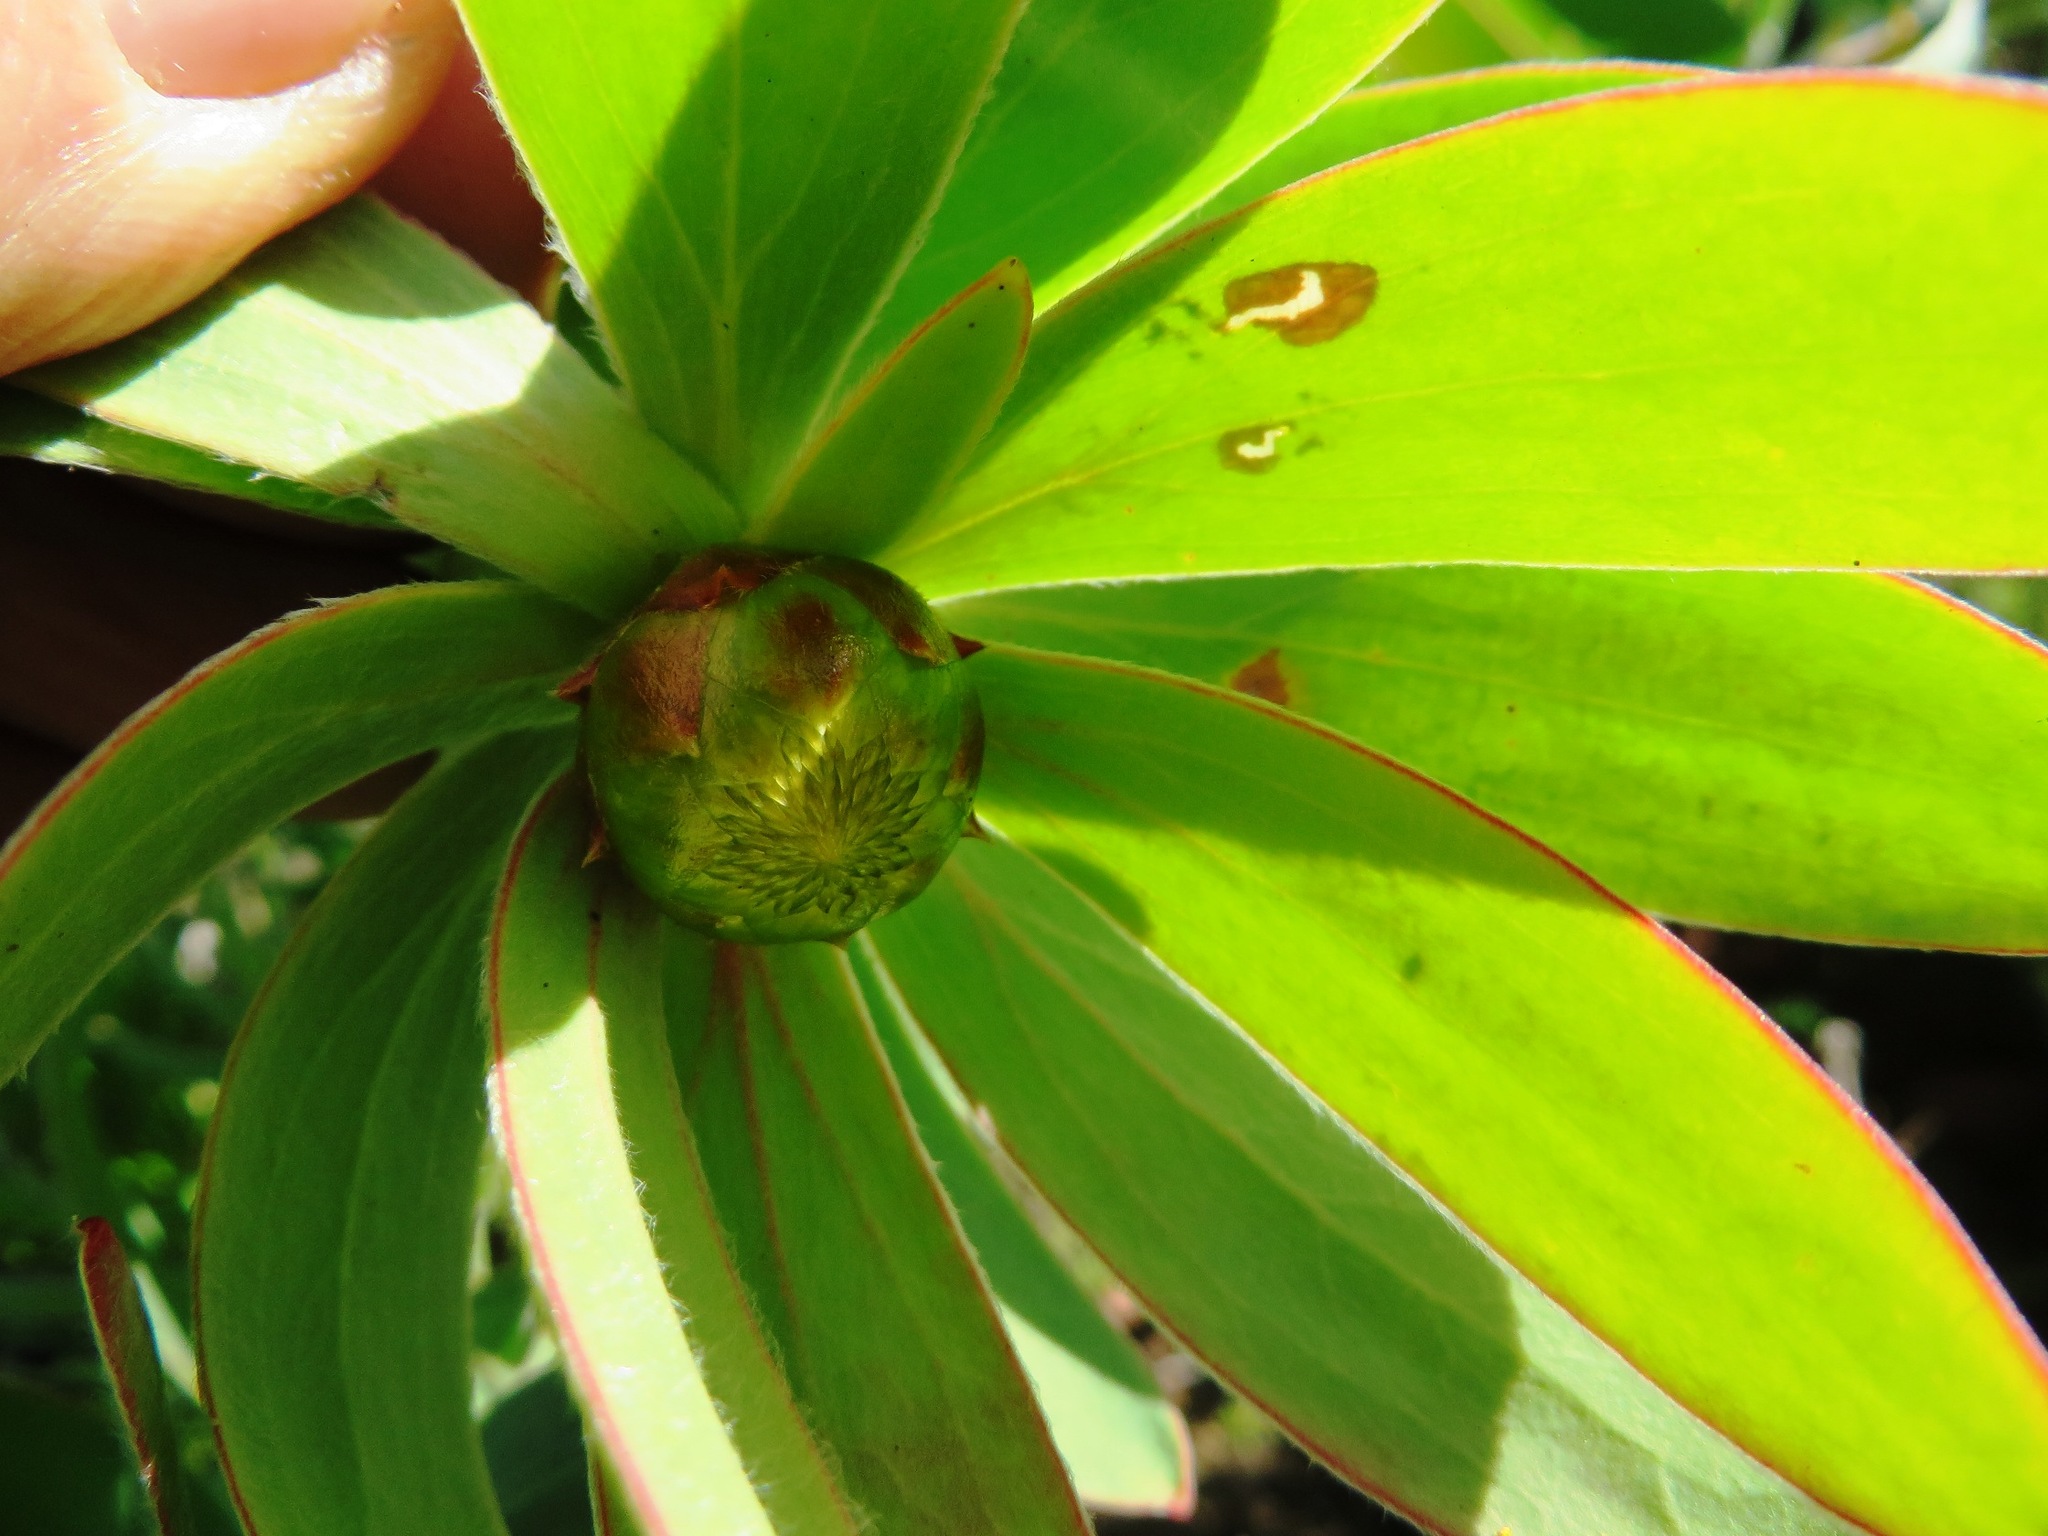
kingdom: Plantae
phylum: Tracheophyta
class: Magnoliopsida
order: Proteales
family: Proteaceae
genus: Leucadendron
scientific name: Leucadendron sessile
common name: Western sunbush
